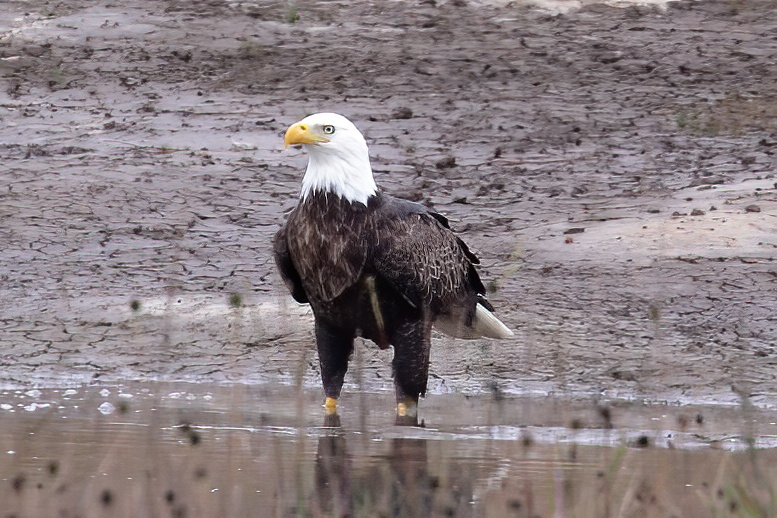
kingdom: Animalia
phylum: Chordata
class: Aves
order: Accipitriformes
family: Accipitridae
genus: Haliaeetus
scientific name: Haliaeetus leucocephalus
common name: Bald eagle
